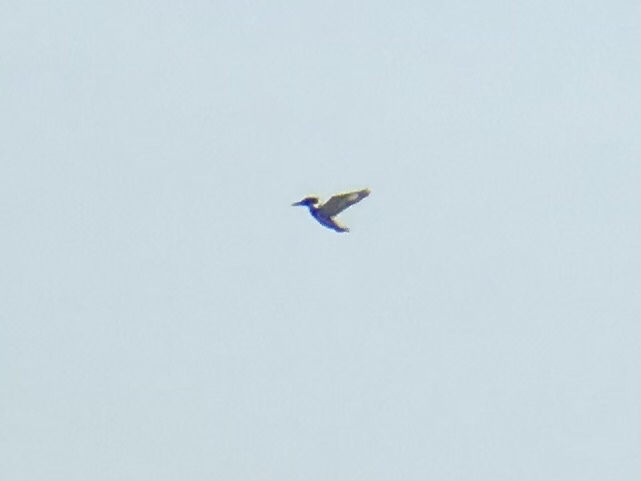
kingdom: Animalia
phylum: Chordata
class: Aves
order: Coraciiformes
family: Alcedinidae
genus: Megaceryle
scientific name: Megaceryle alcyon
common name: Belted kingfisher
